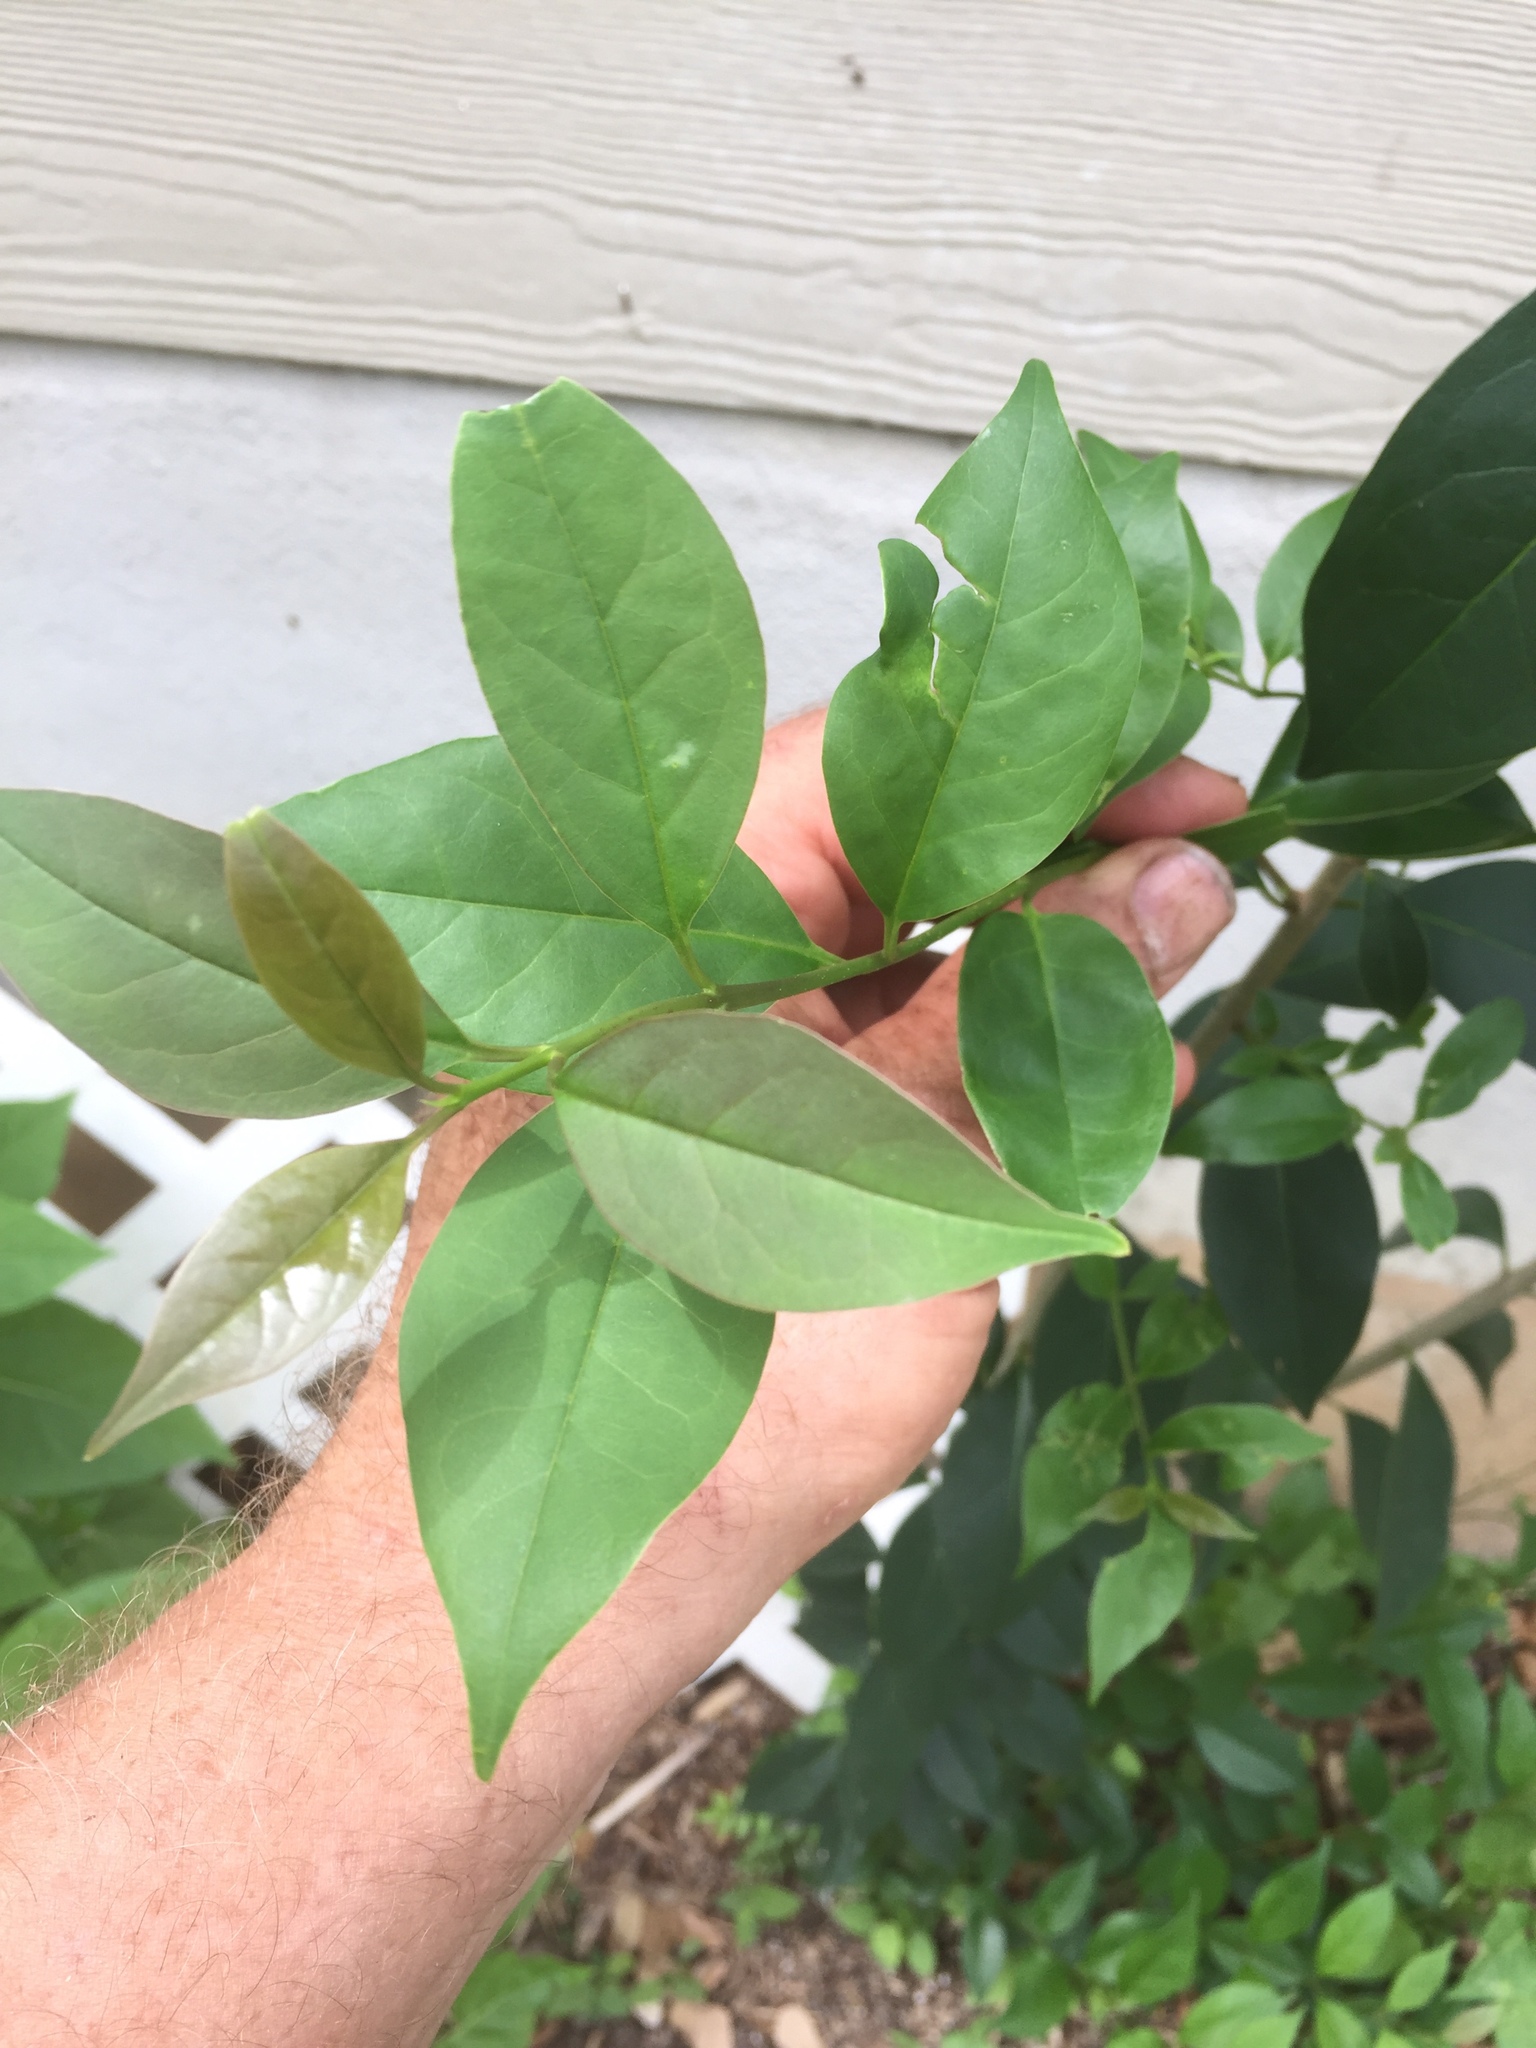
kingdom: Plantae
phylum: Tracheophyta
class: Magnoliopsida
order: Lamiales
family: Oleaceae
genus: Ligustrum
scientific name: Ligustrum lucidum
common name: Glossy privet
